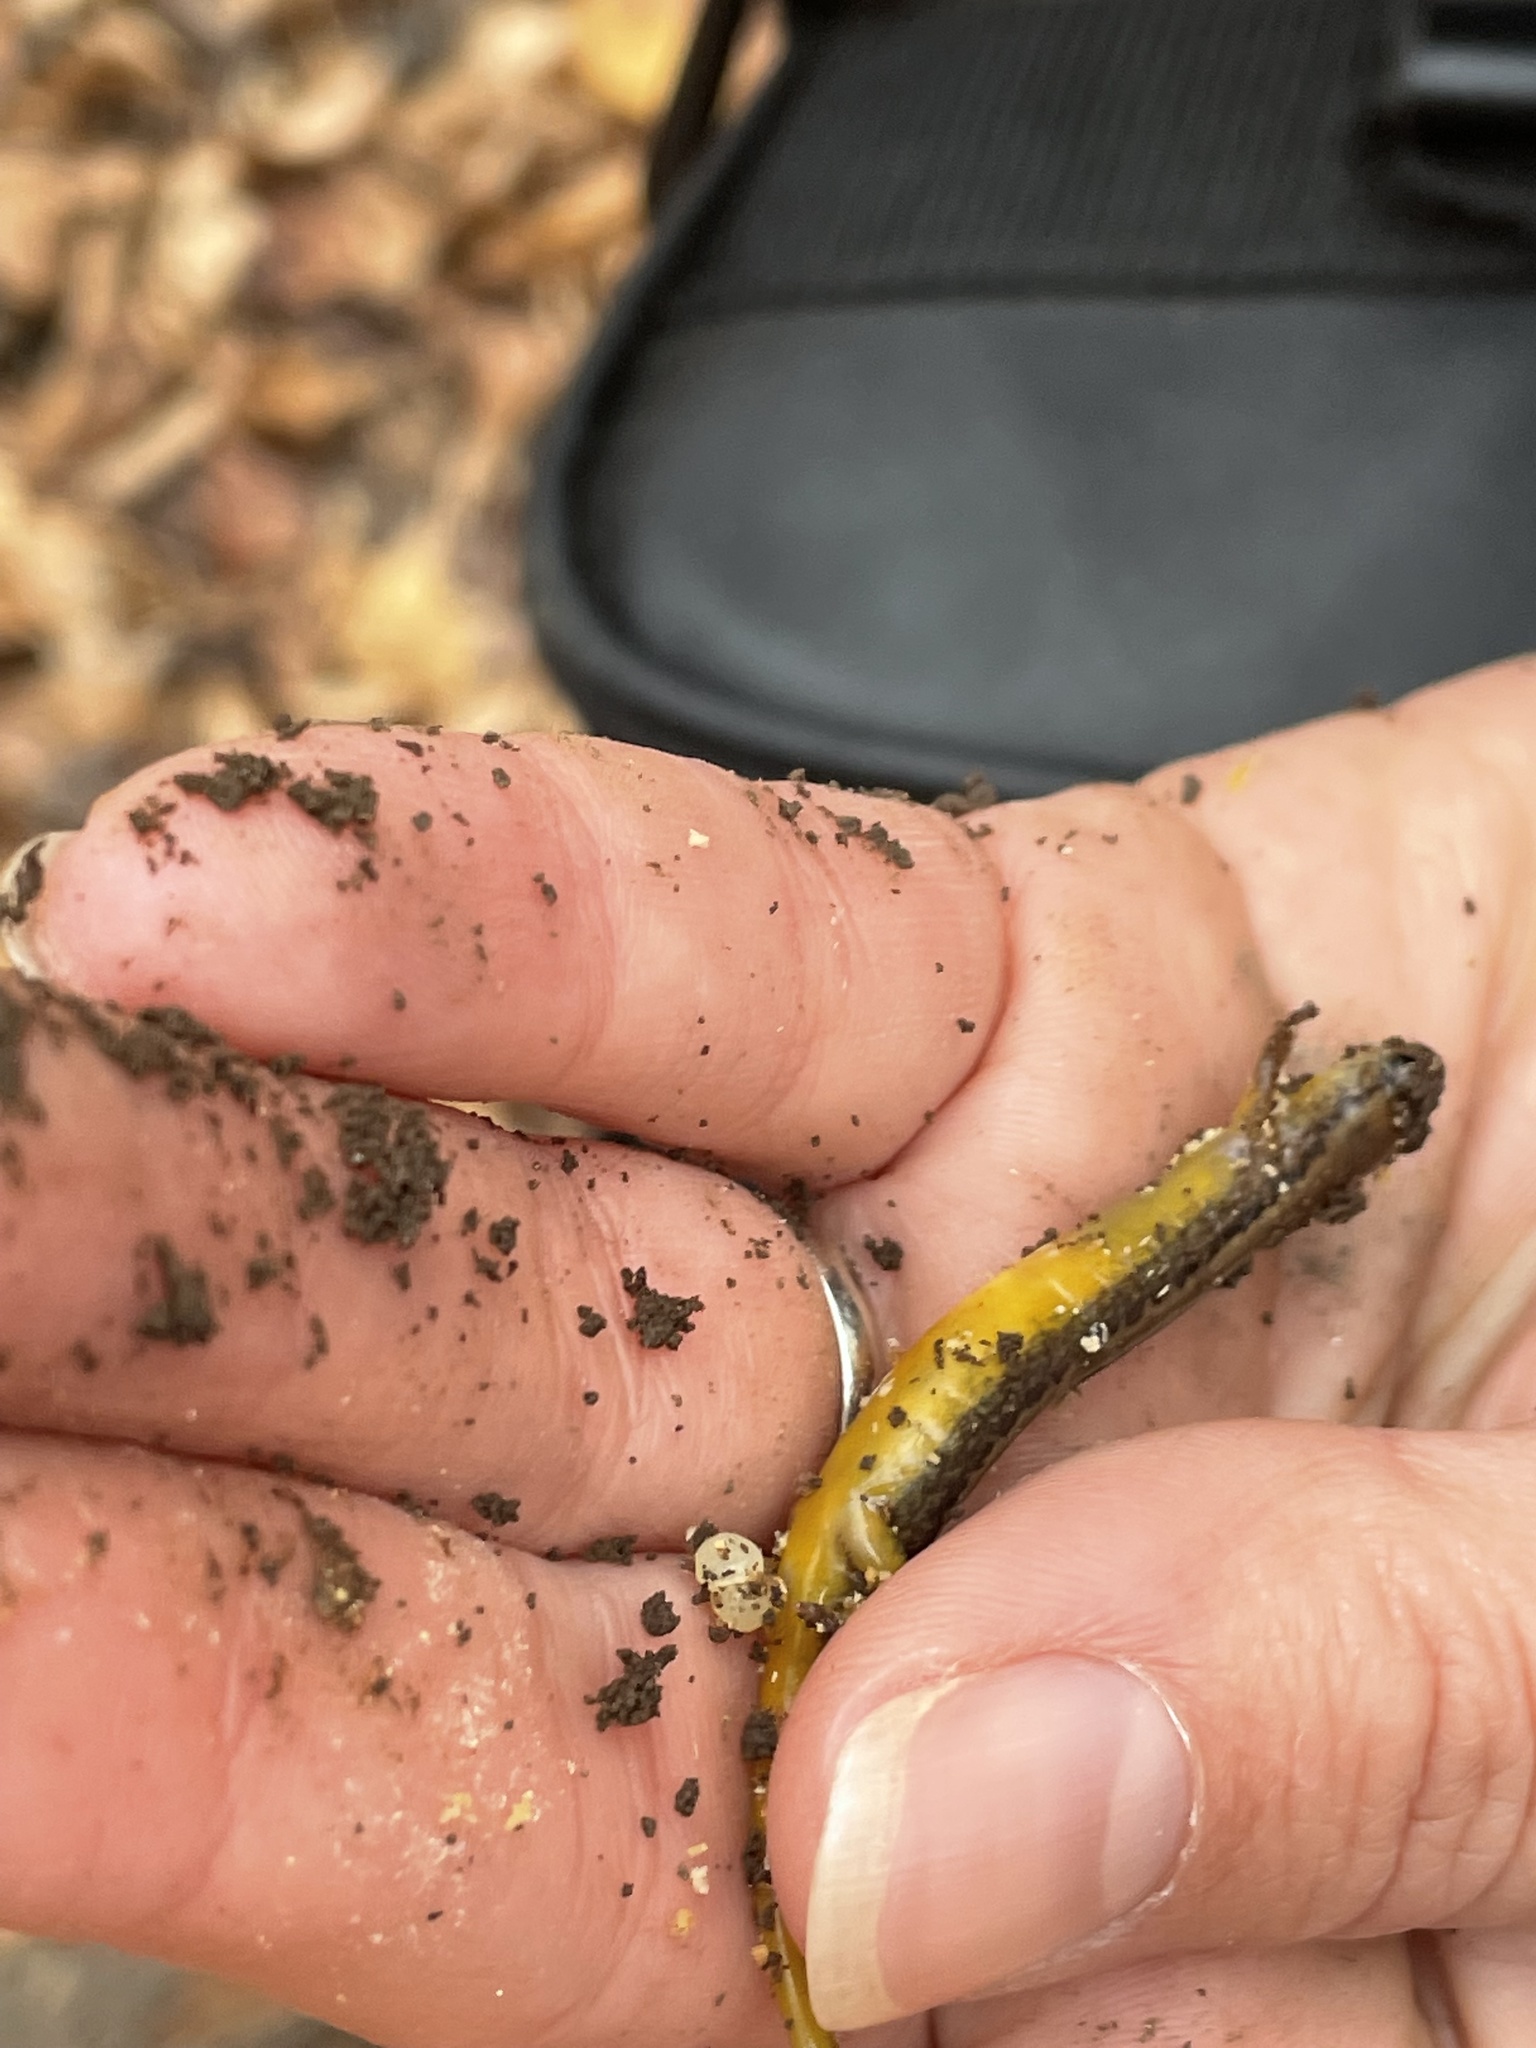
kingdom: Animalia
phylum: Chordata
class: Amphibia
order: Caudata
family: Plethodontidae
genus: Eurycea
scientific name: Eurycea bislineata
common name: Northern two-lined salamander
